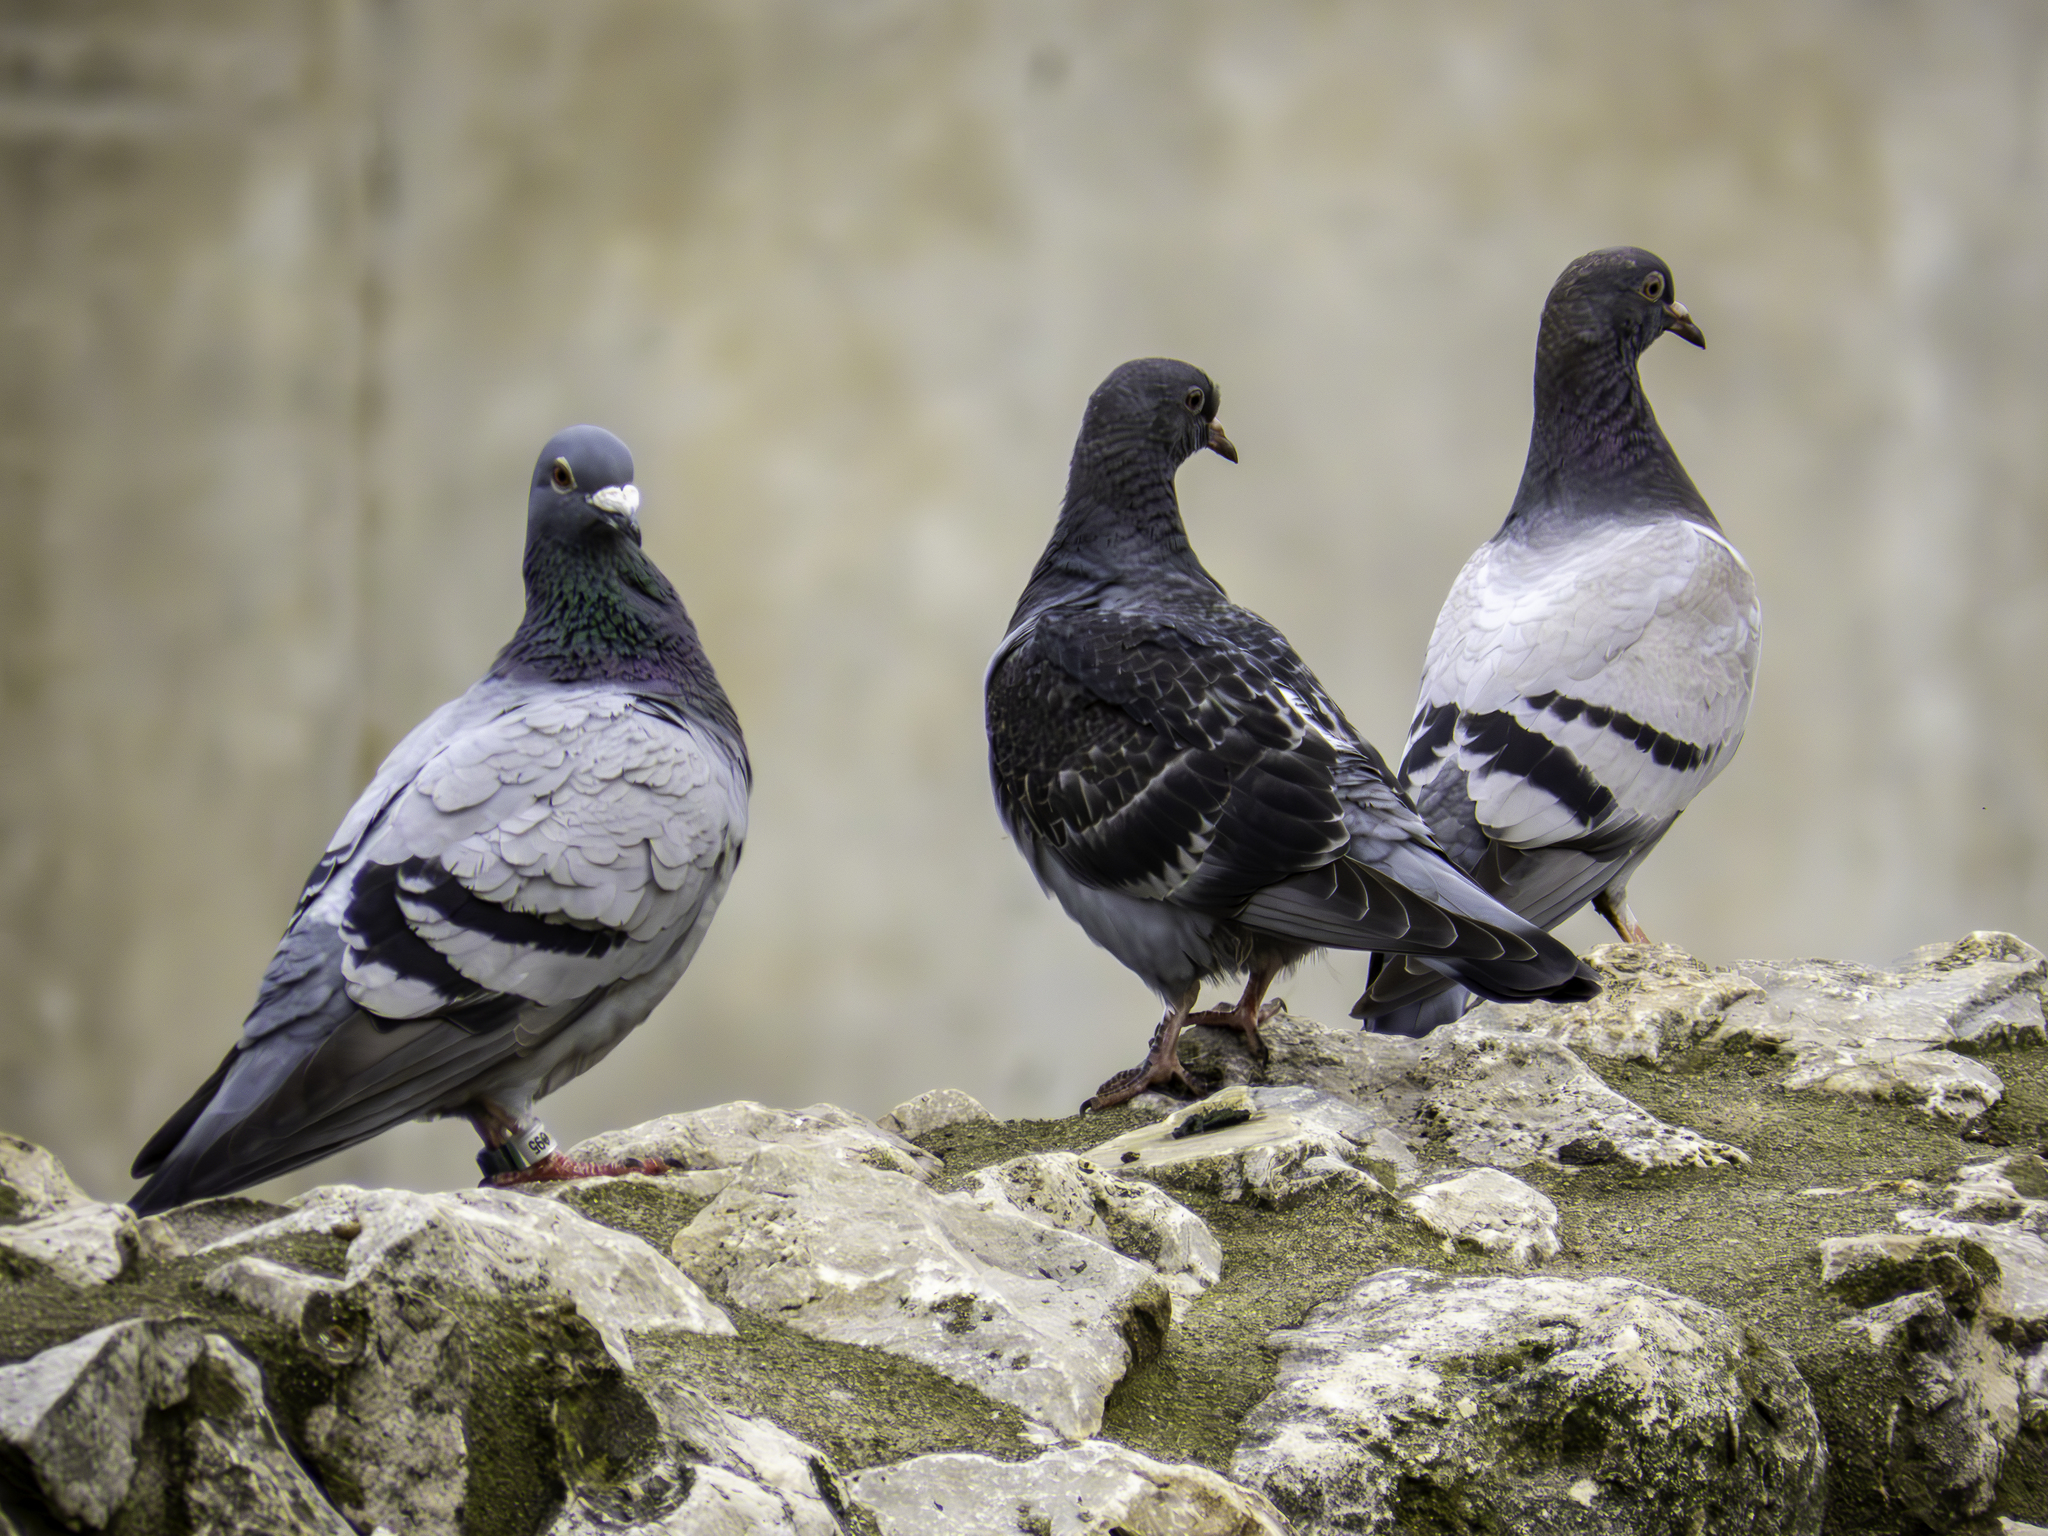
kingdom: Animalia
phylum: Chordata
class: Aves
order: Columbiformes
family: Columbidae
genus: Columba
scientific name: Columba livia
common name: Rock pigeon
